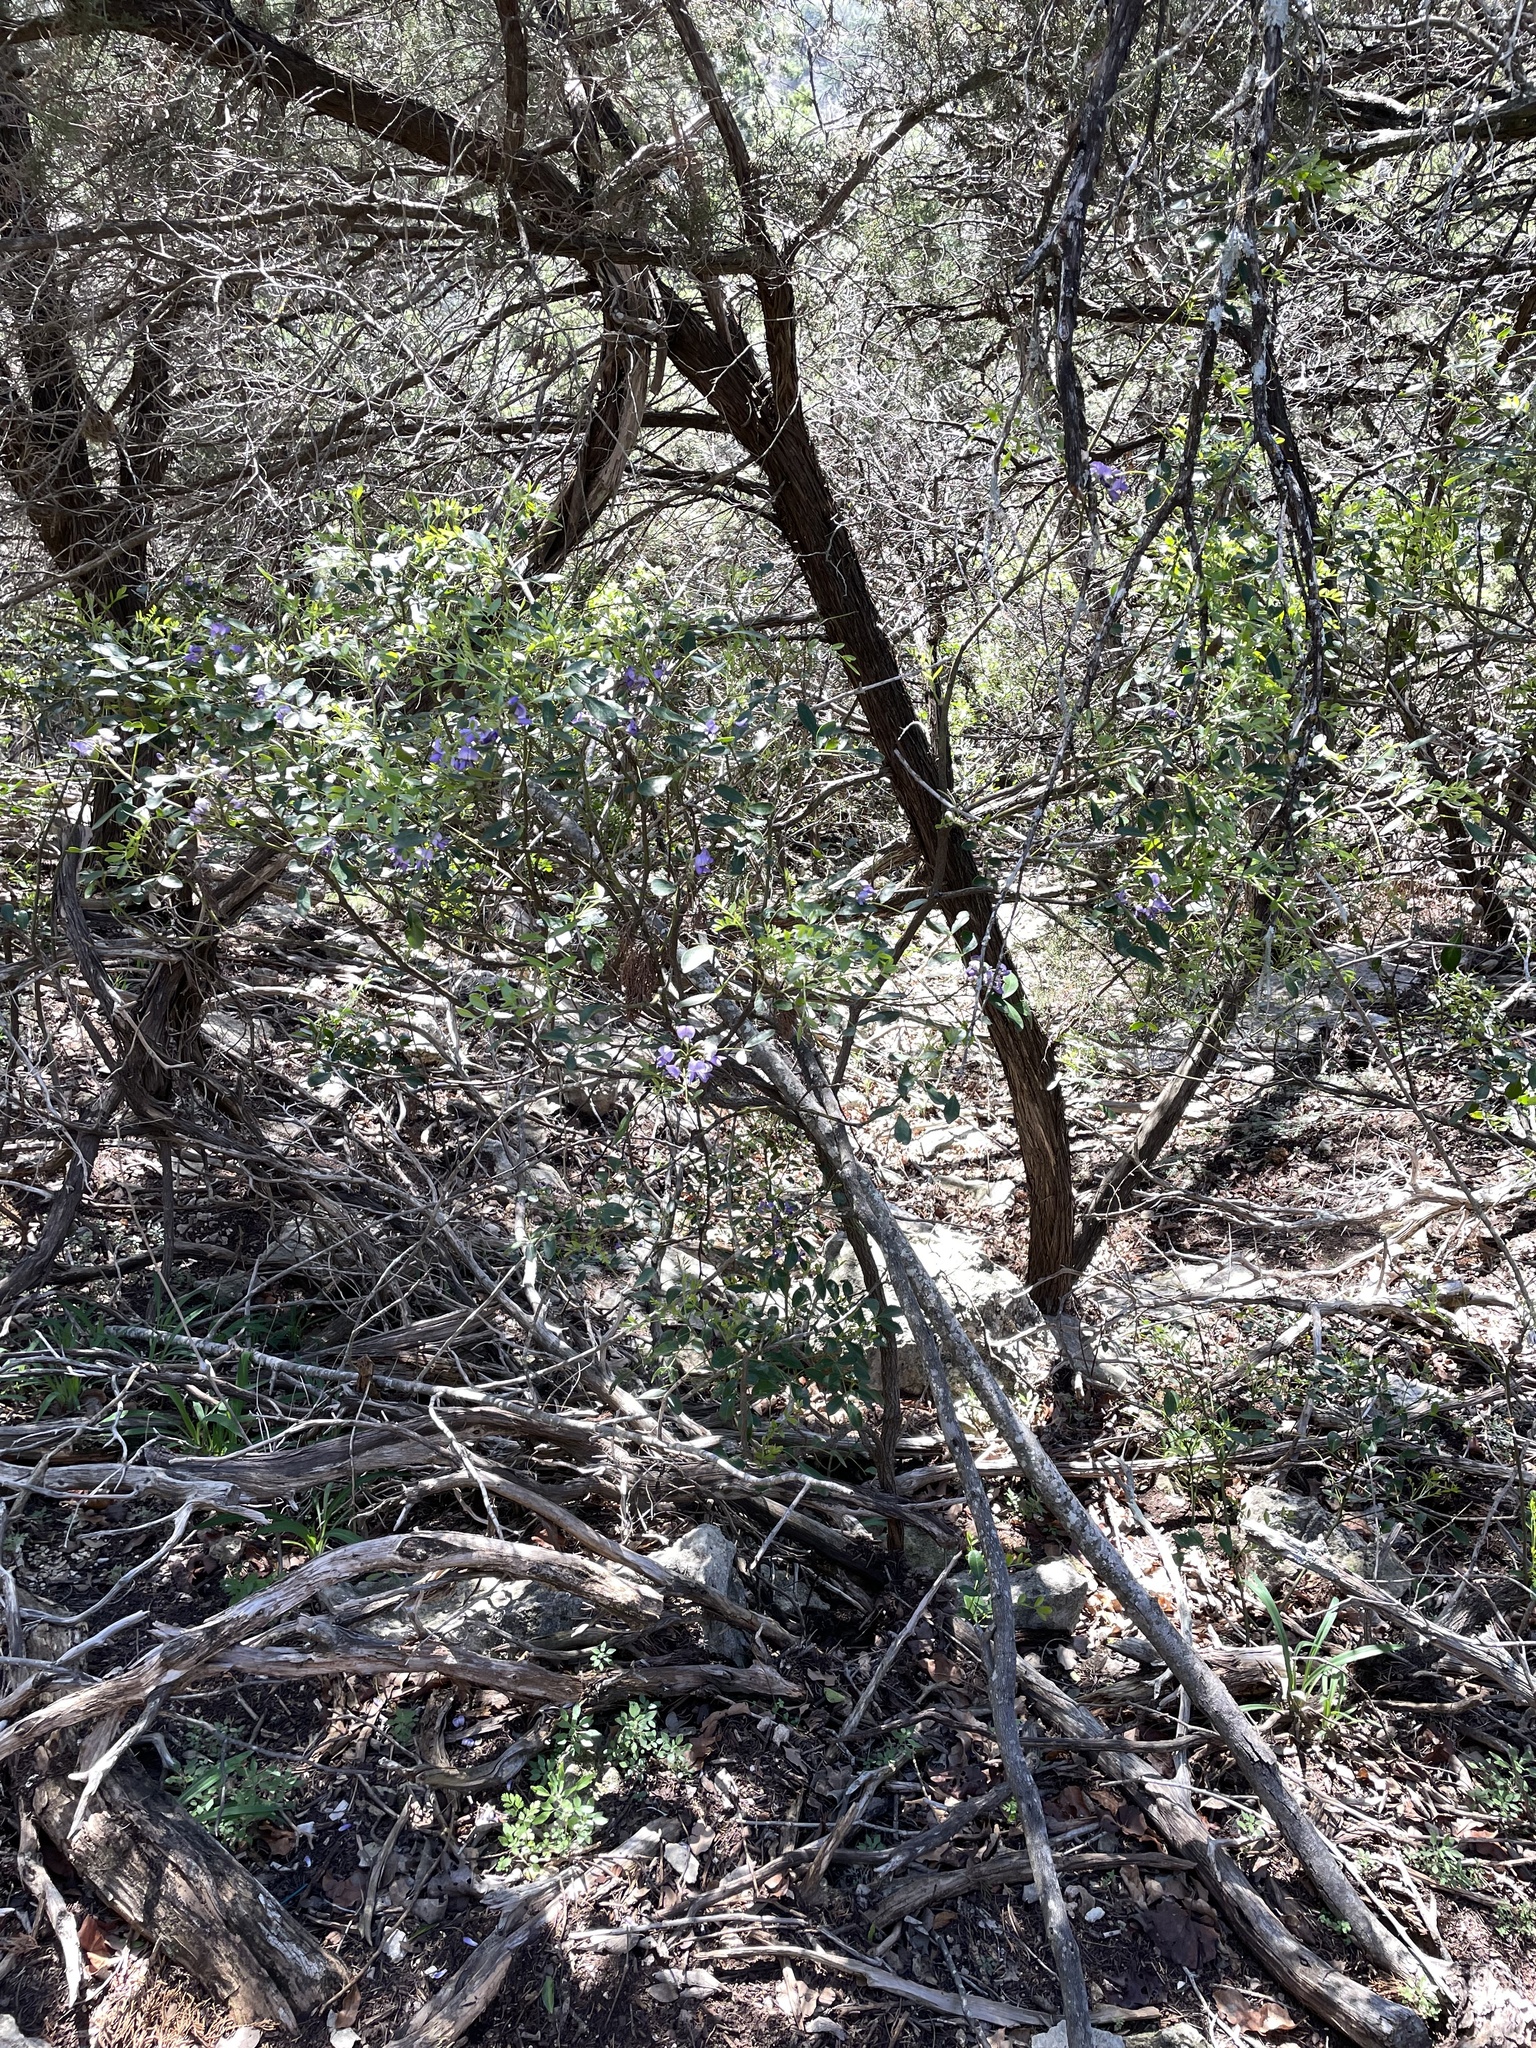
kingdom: Plantae
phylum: Tracheophyta
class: Magnoliopsida
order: Fabales
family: Fabaceae
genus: Dermatophyllum
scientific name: Dermatophyllum secundiflorum
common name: Texas-mountain-laurel
